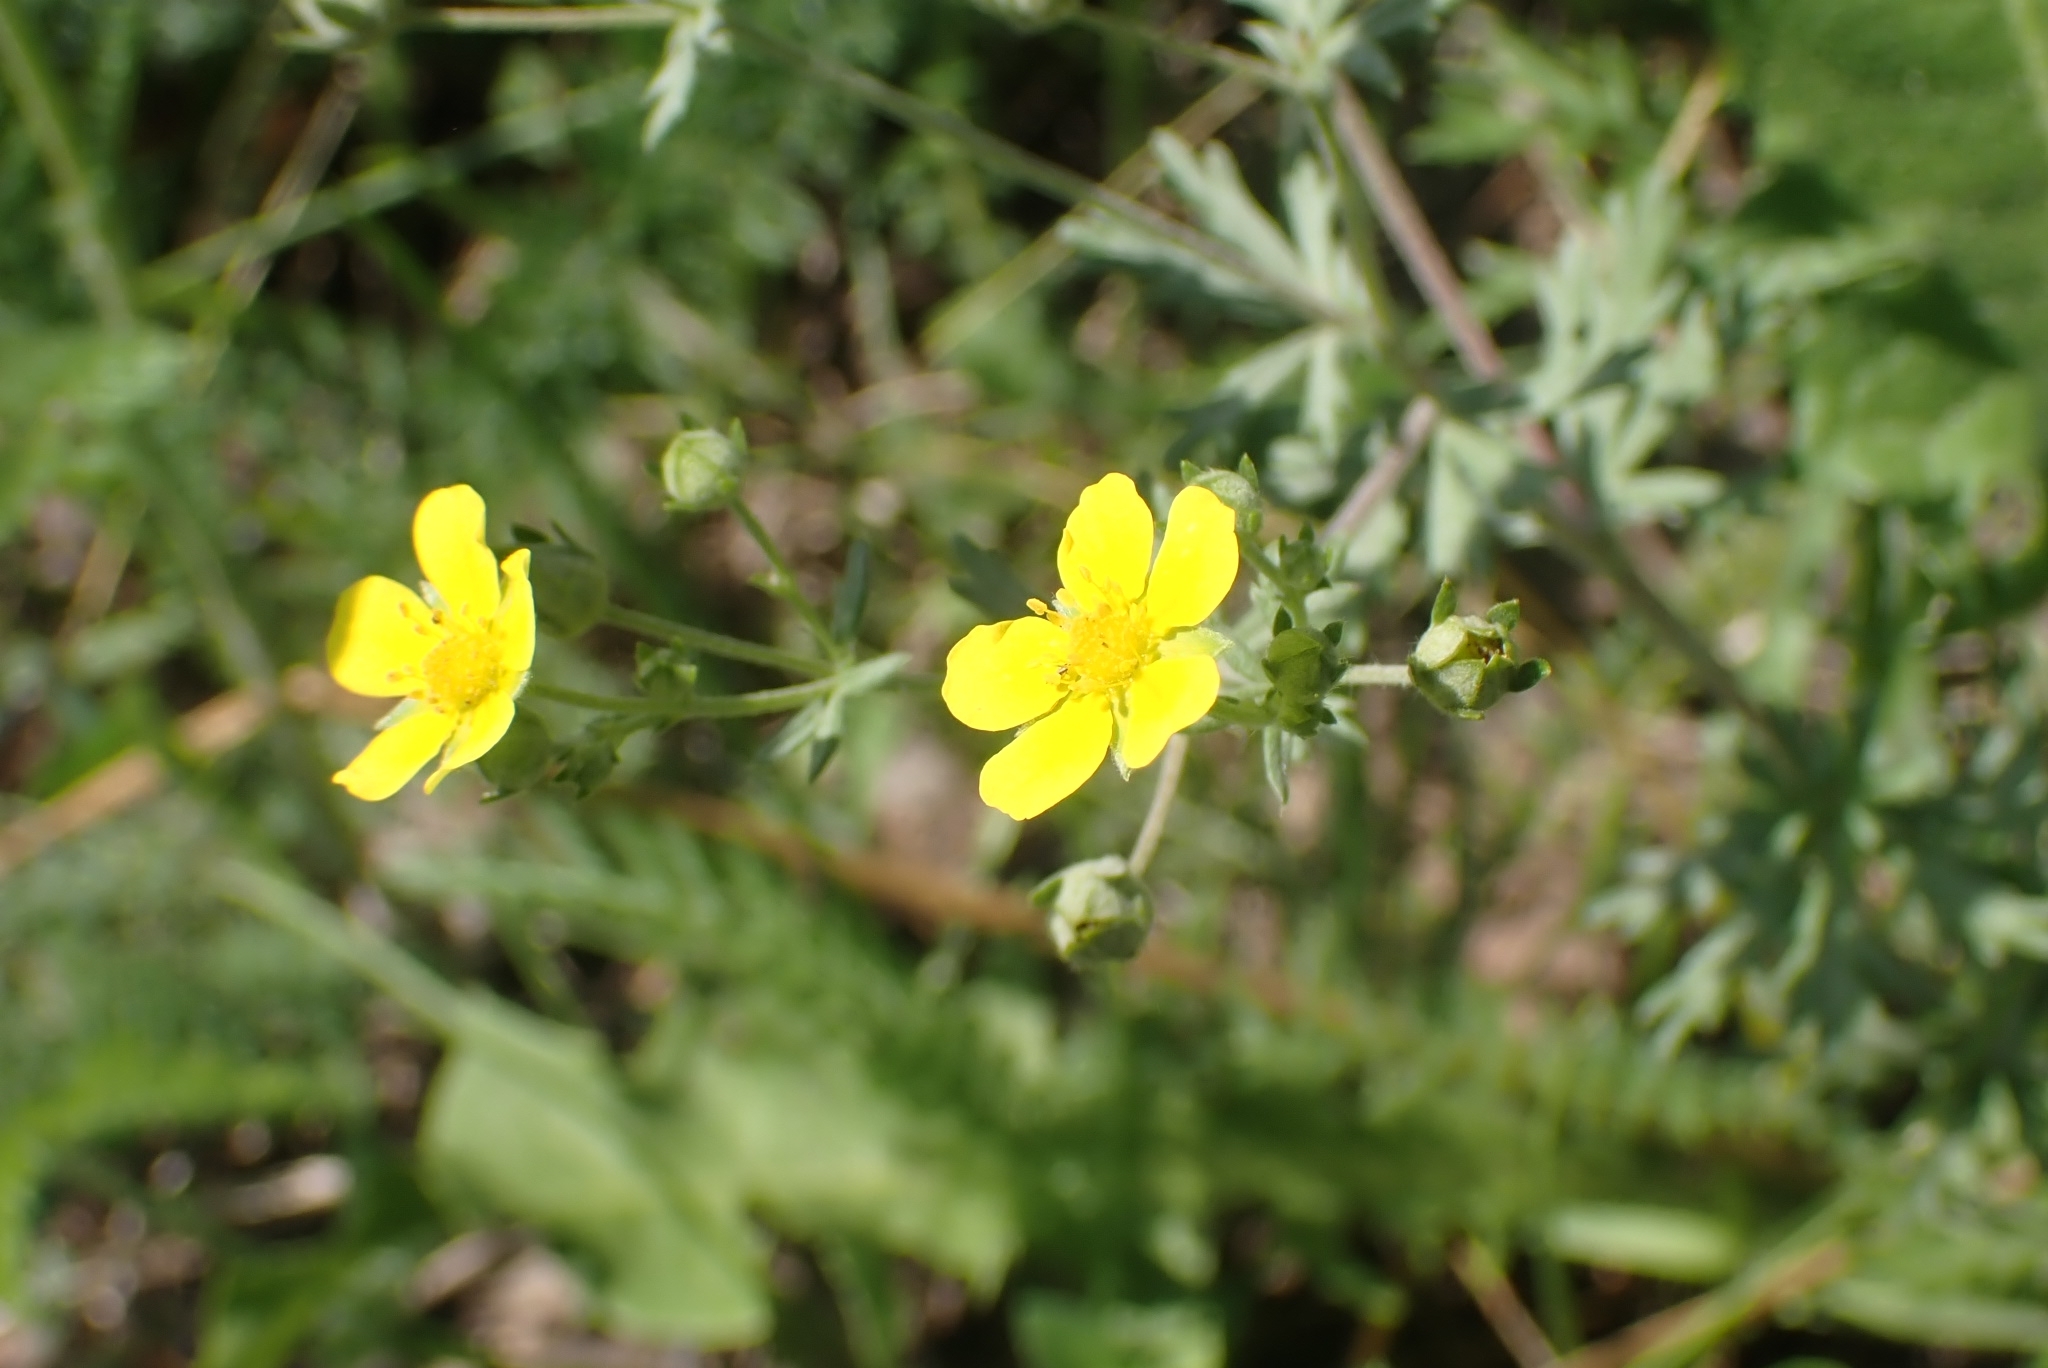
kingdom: Plantae
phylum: Tracheophyta
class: Magnoliopsida
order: Rosales
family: Rosaceae
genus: Potentilla
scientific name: Potentilla argentea
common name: Hoary cinquefoil
